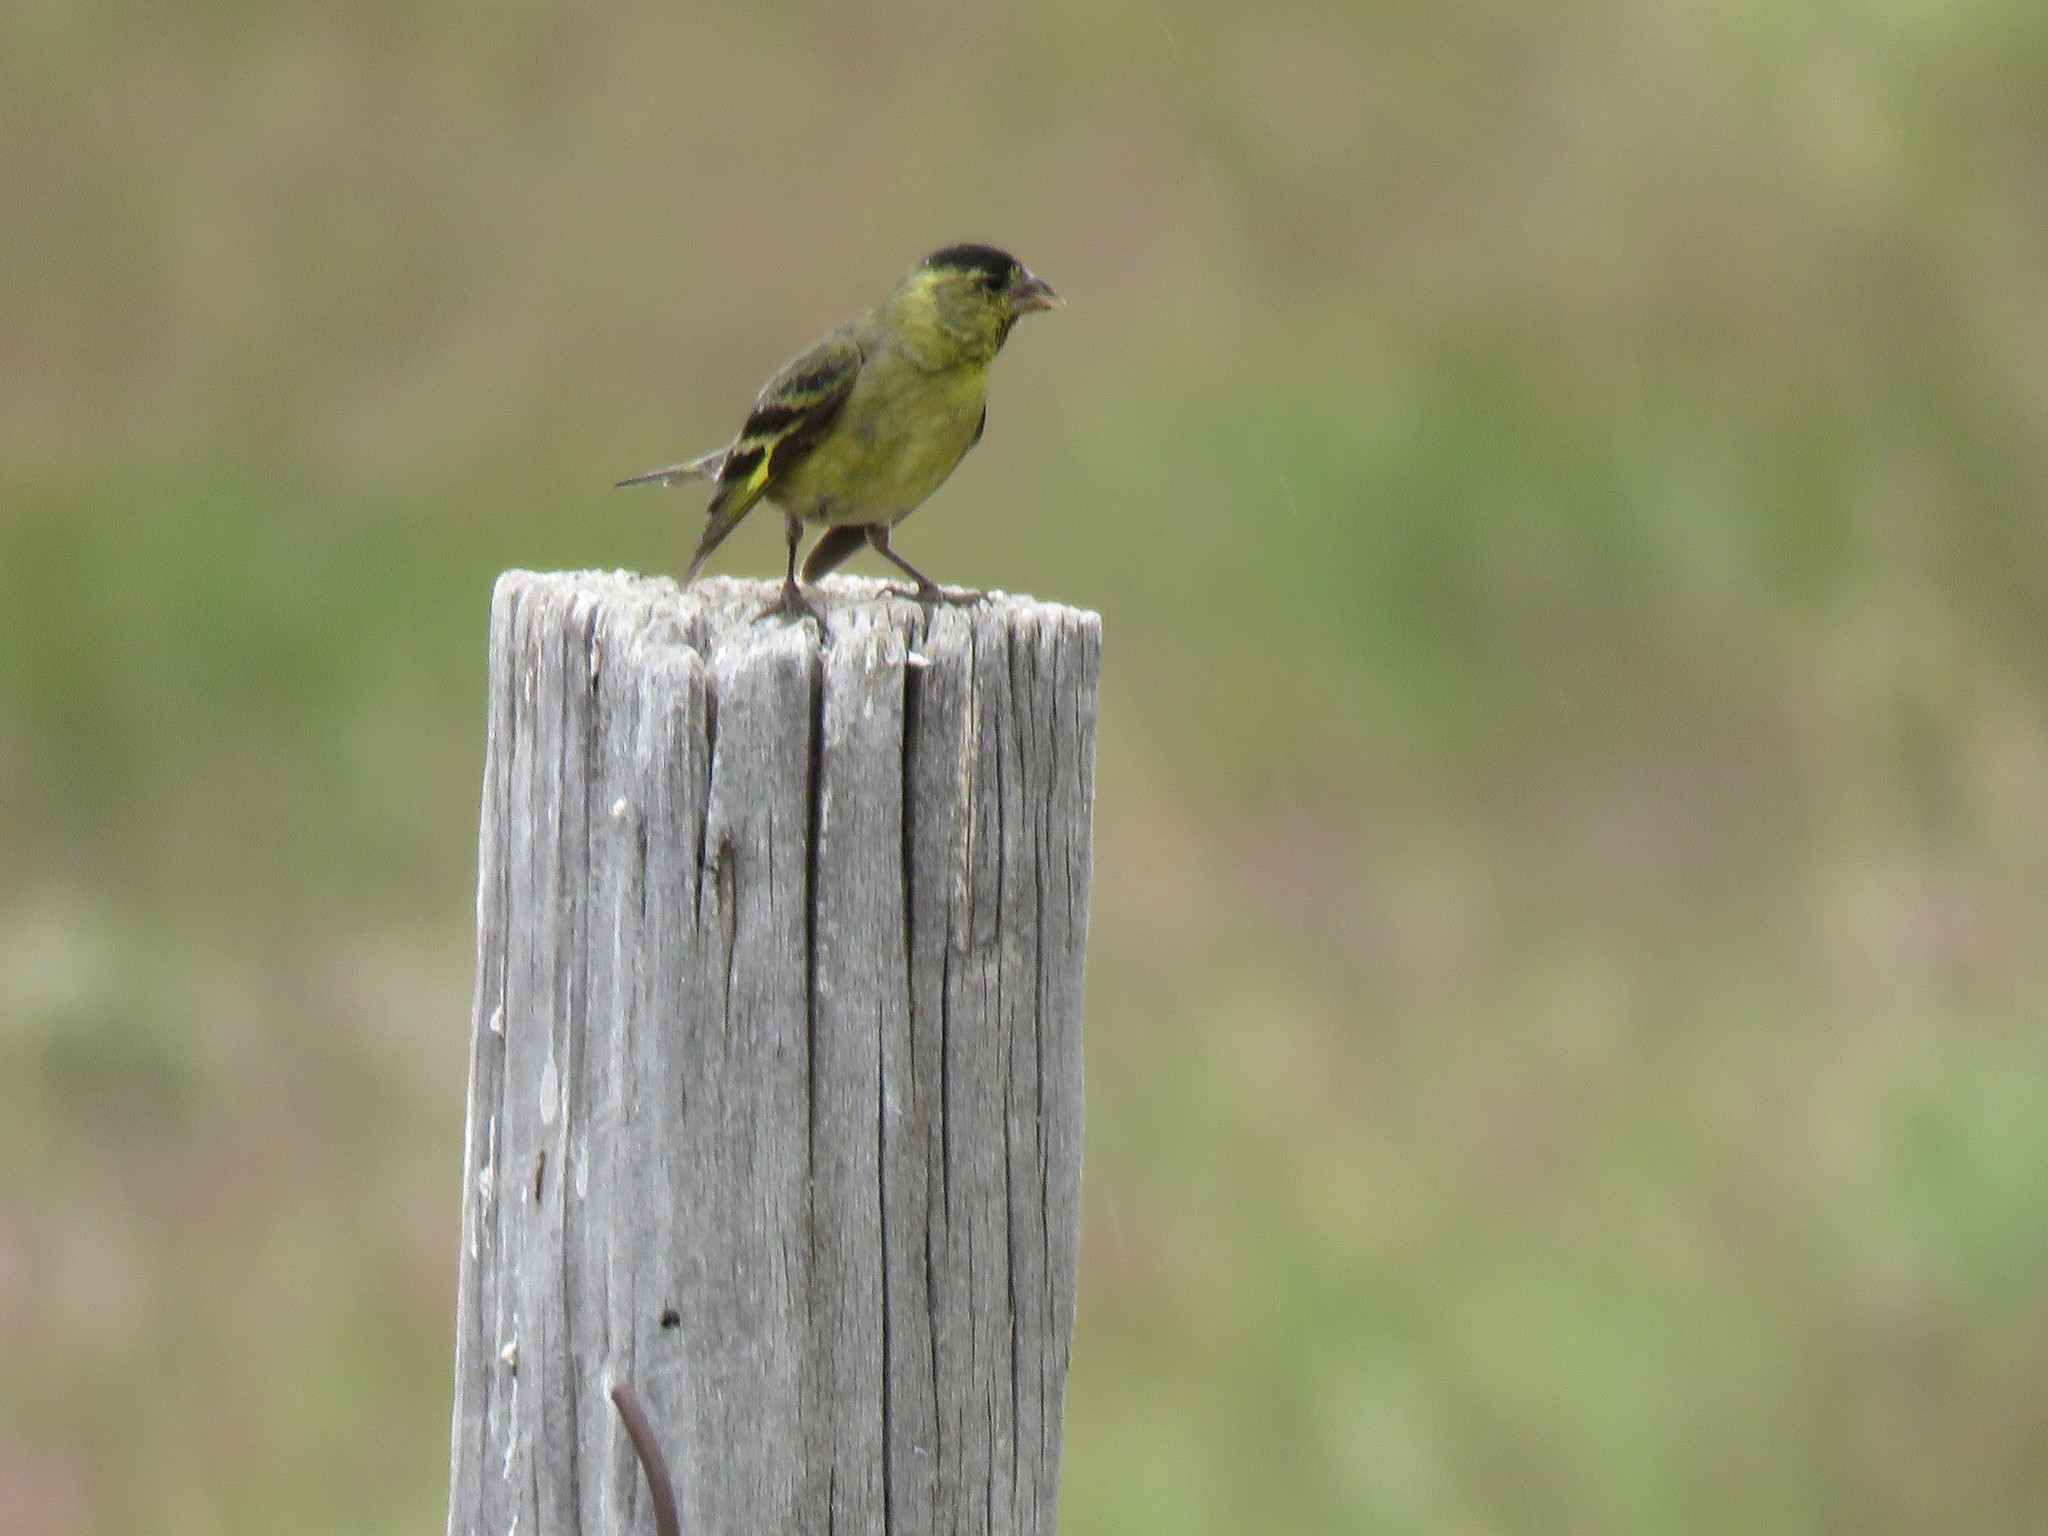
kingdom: Animalia
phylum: Chordata
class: Aves
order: Passeriformes
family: Fringillidae
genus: Spinus
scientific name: Spinus barbatus
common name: Black-chinned siskin
